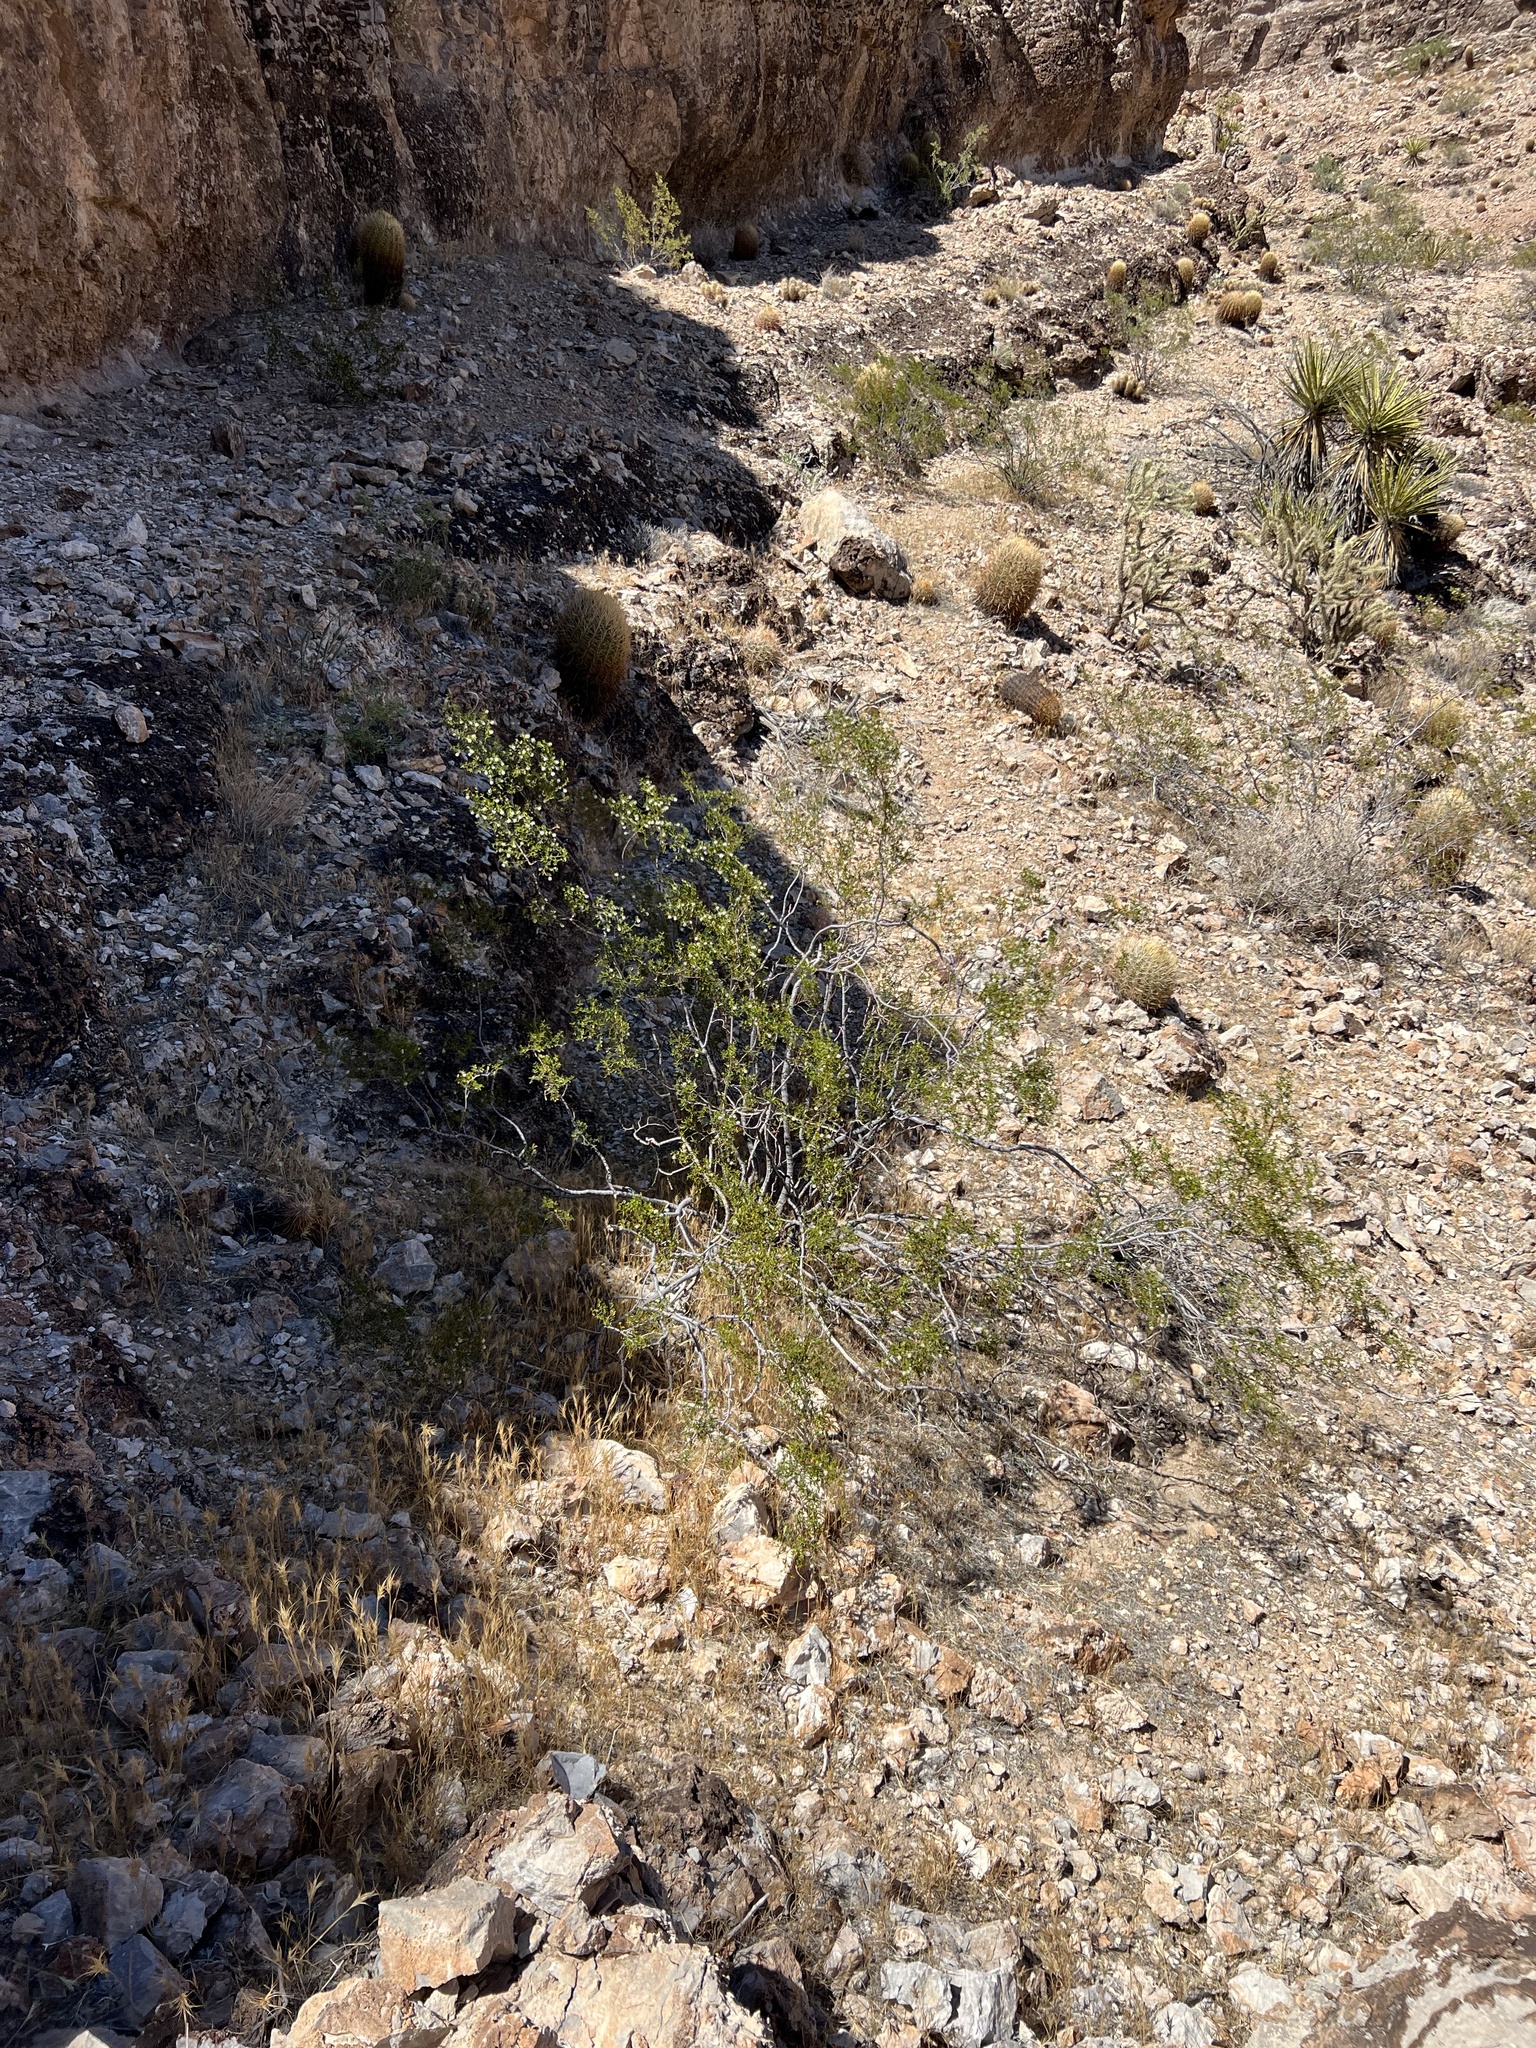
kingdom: Plantae
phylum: Tracheophyta
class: Magnoliopsida
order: Zygophyllales
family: Zygophyllaceae
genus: Larrea
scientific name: Larrea tridentata
